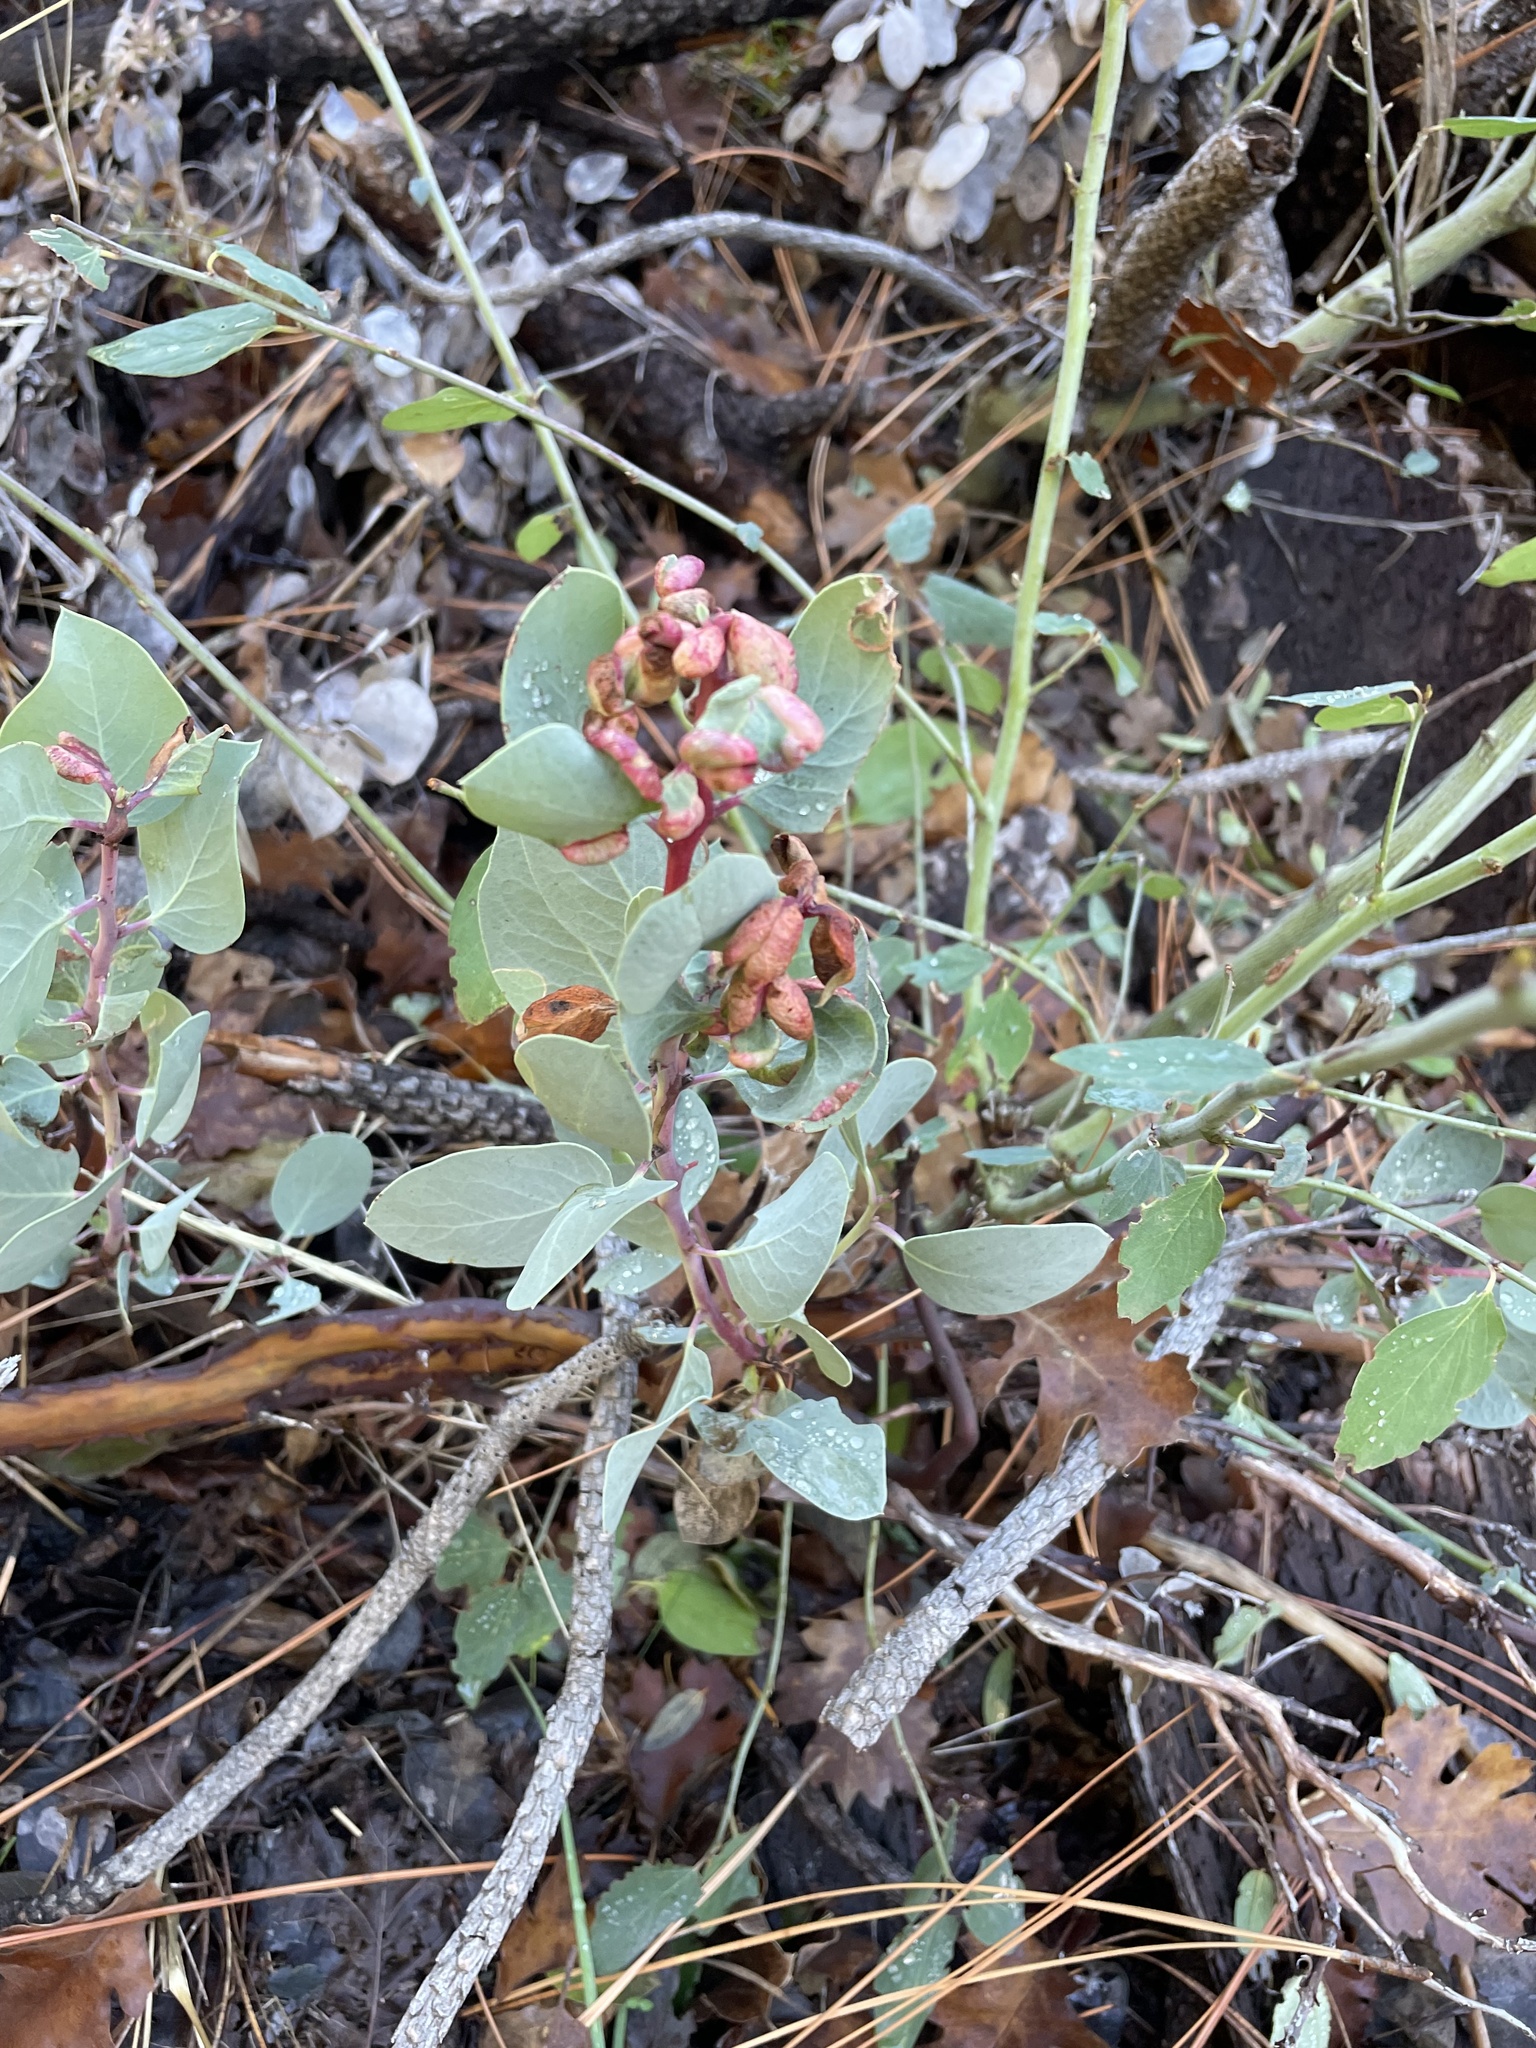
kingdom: Plantae
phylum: Tracheophyta
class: Magnoliopsida
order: Ericales
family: Ericaceae
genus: Arctostaphylos
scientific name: Arctostaphylos
